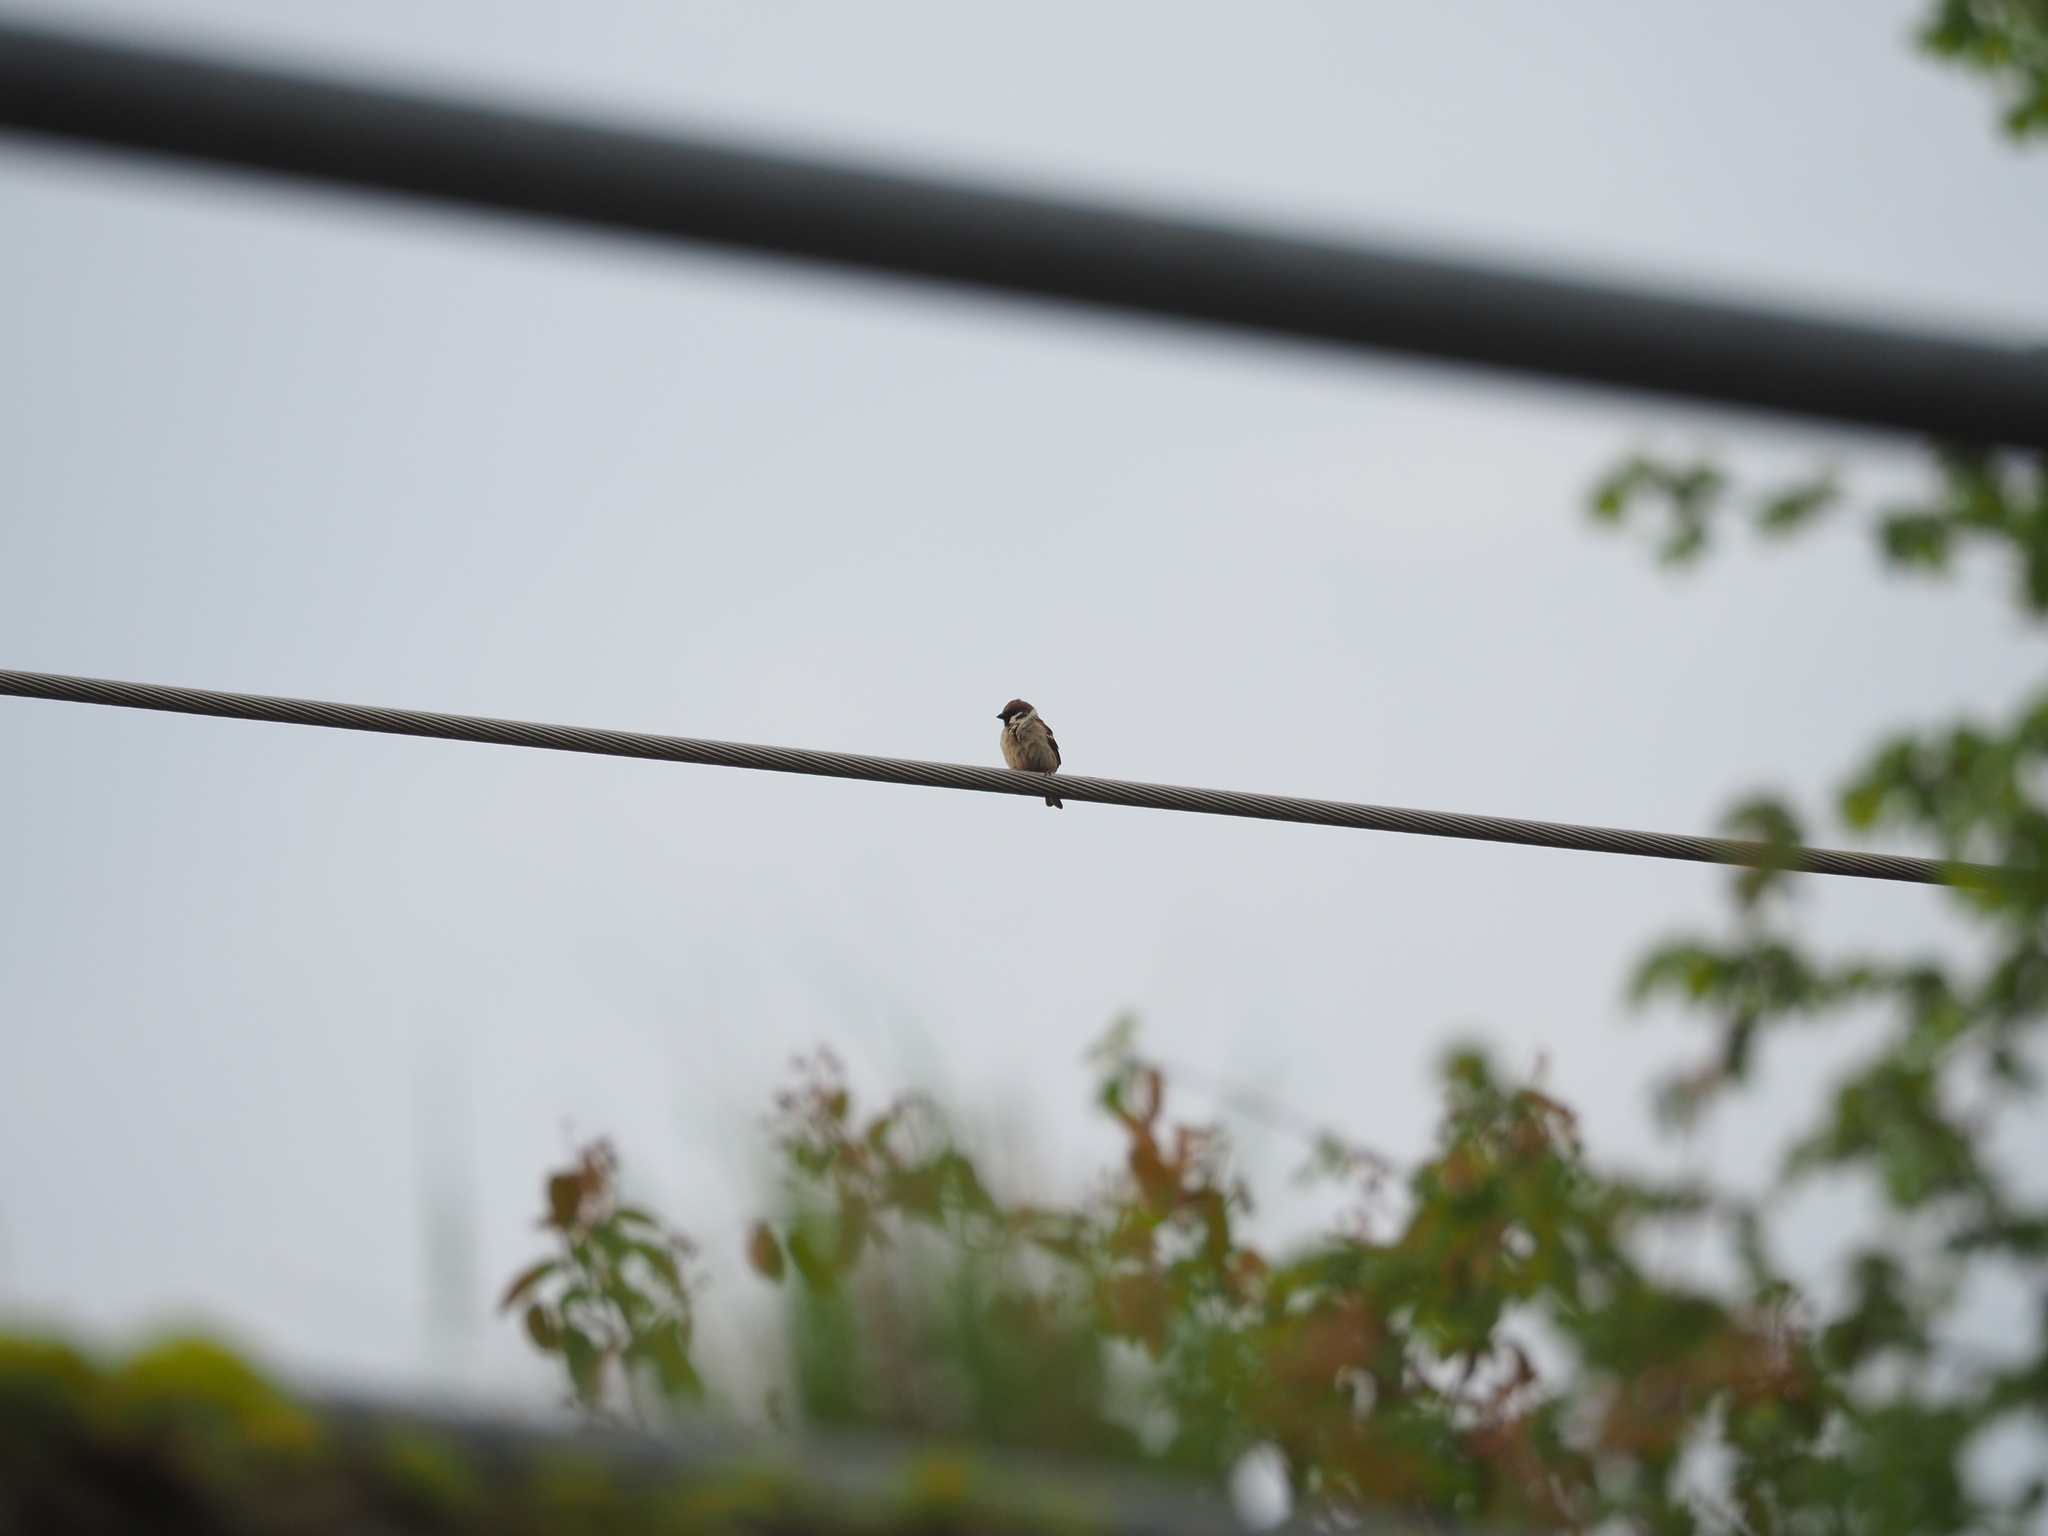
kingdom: Animalia
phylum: Chordata
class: Aves
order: Passeriformes
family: Passeridae
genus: Passer
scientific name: Passer montanus
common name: Eurasian tree sparrow
